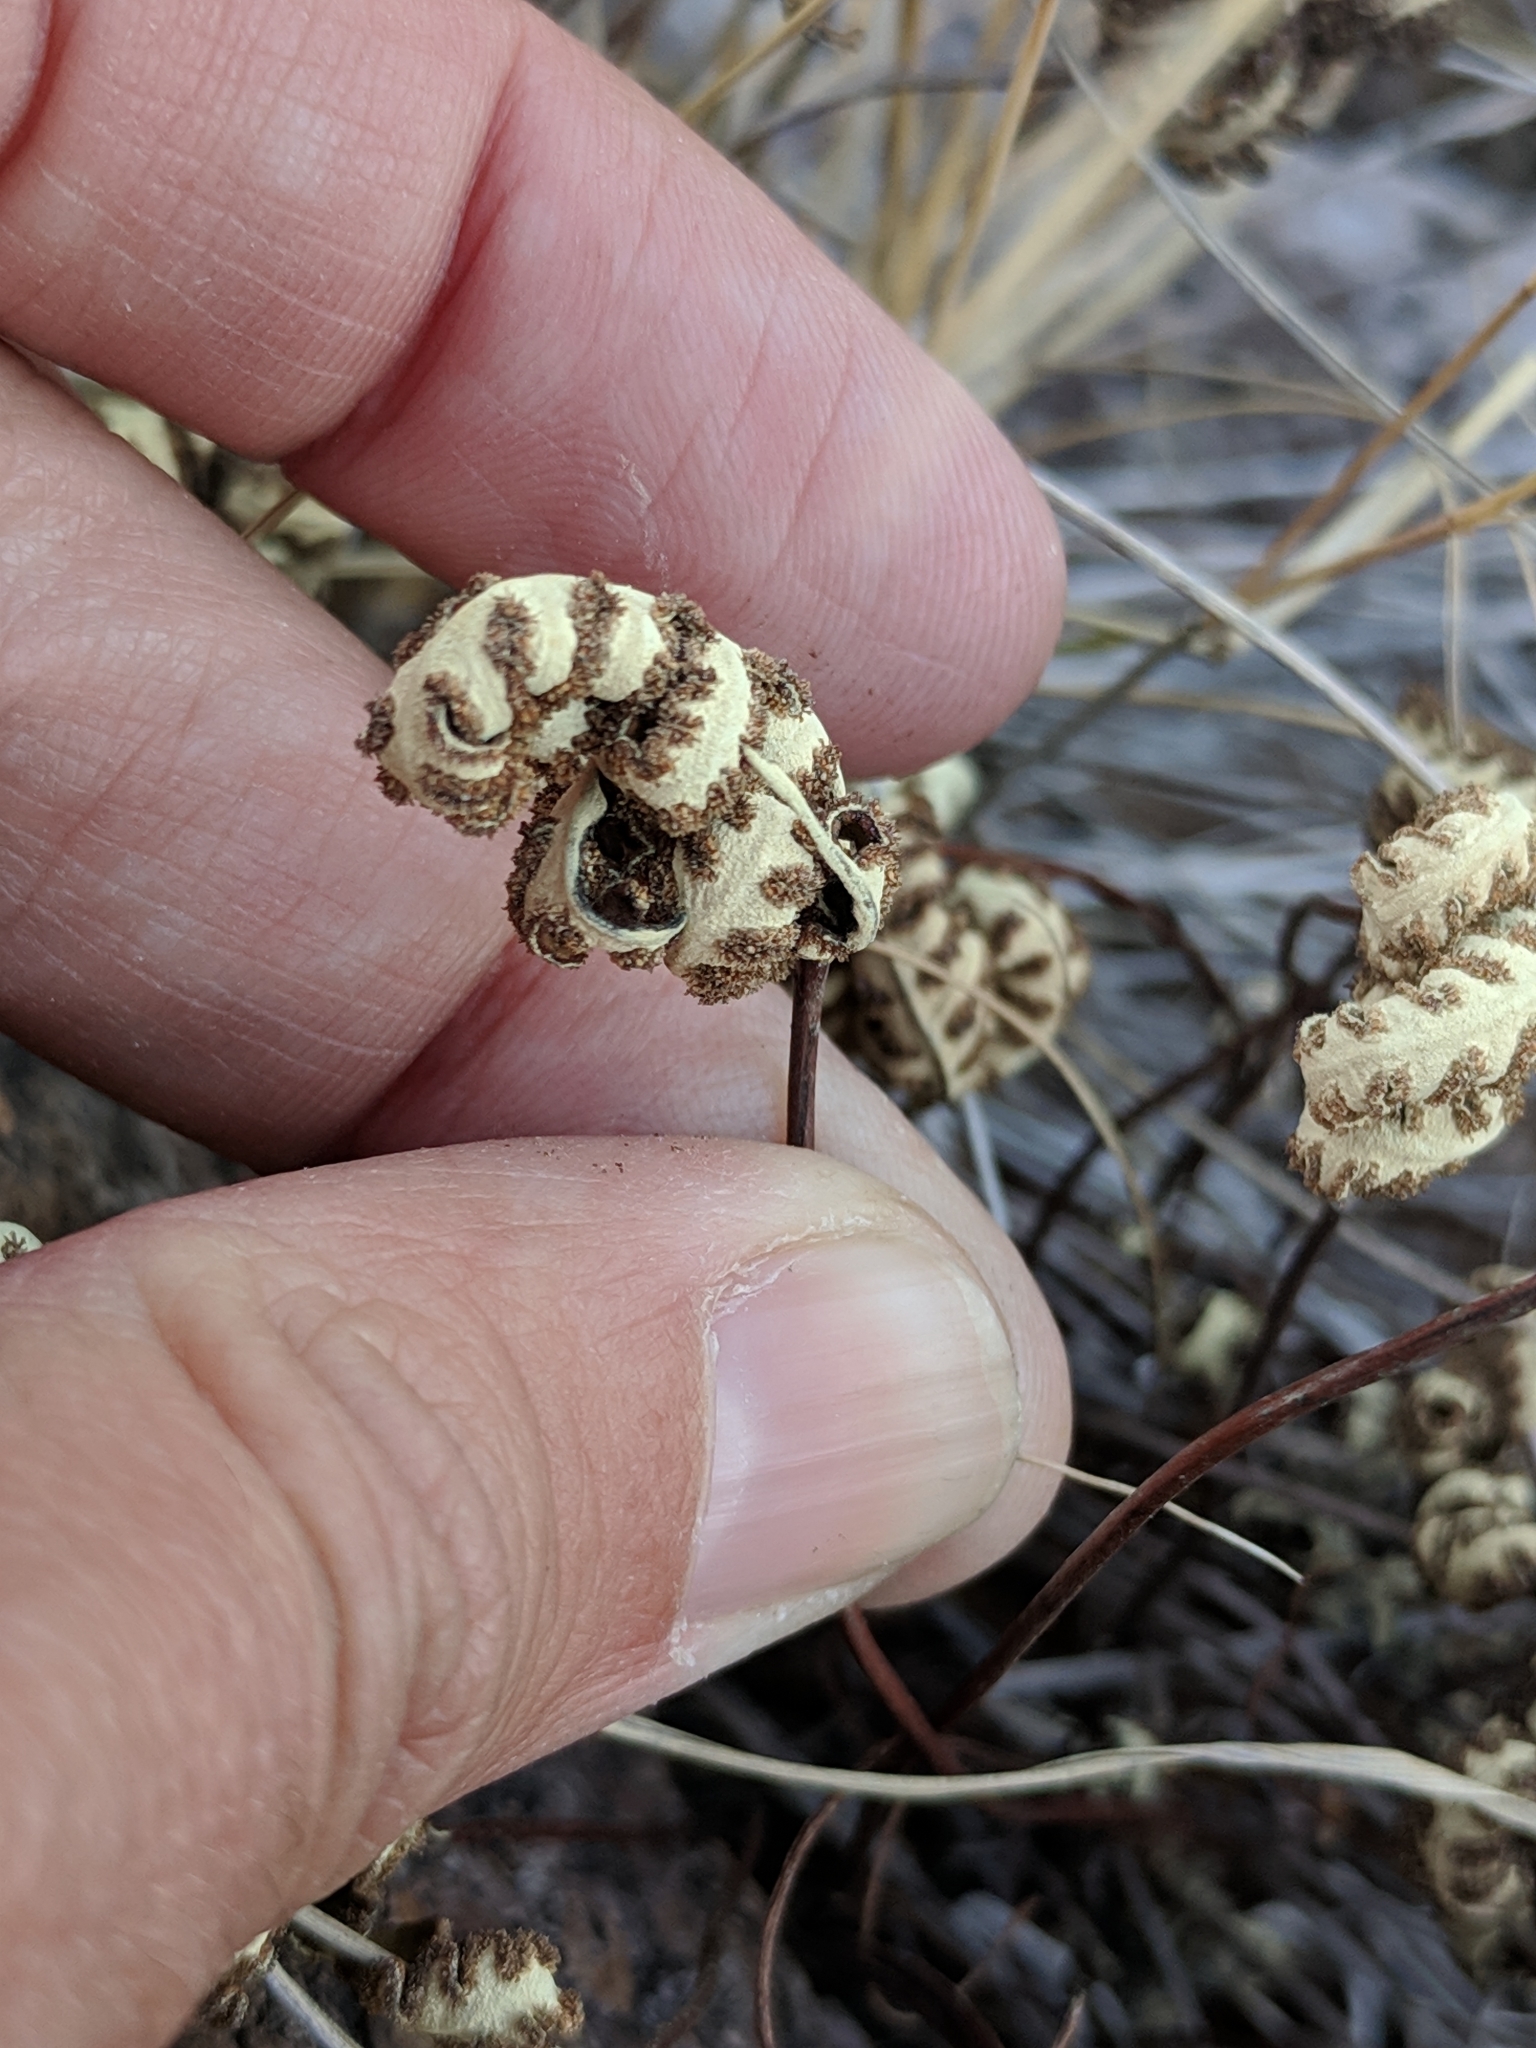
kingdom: Plantae
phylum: Tracheophyta
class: Polypodiopsida
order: Polypodiales
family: Pteridaceae
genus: Notholaena
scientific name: Notholaena standleyi
